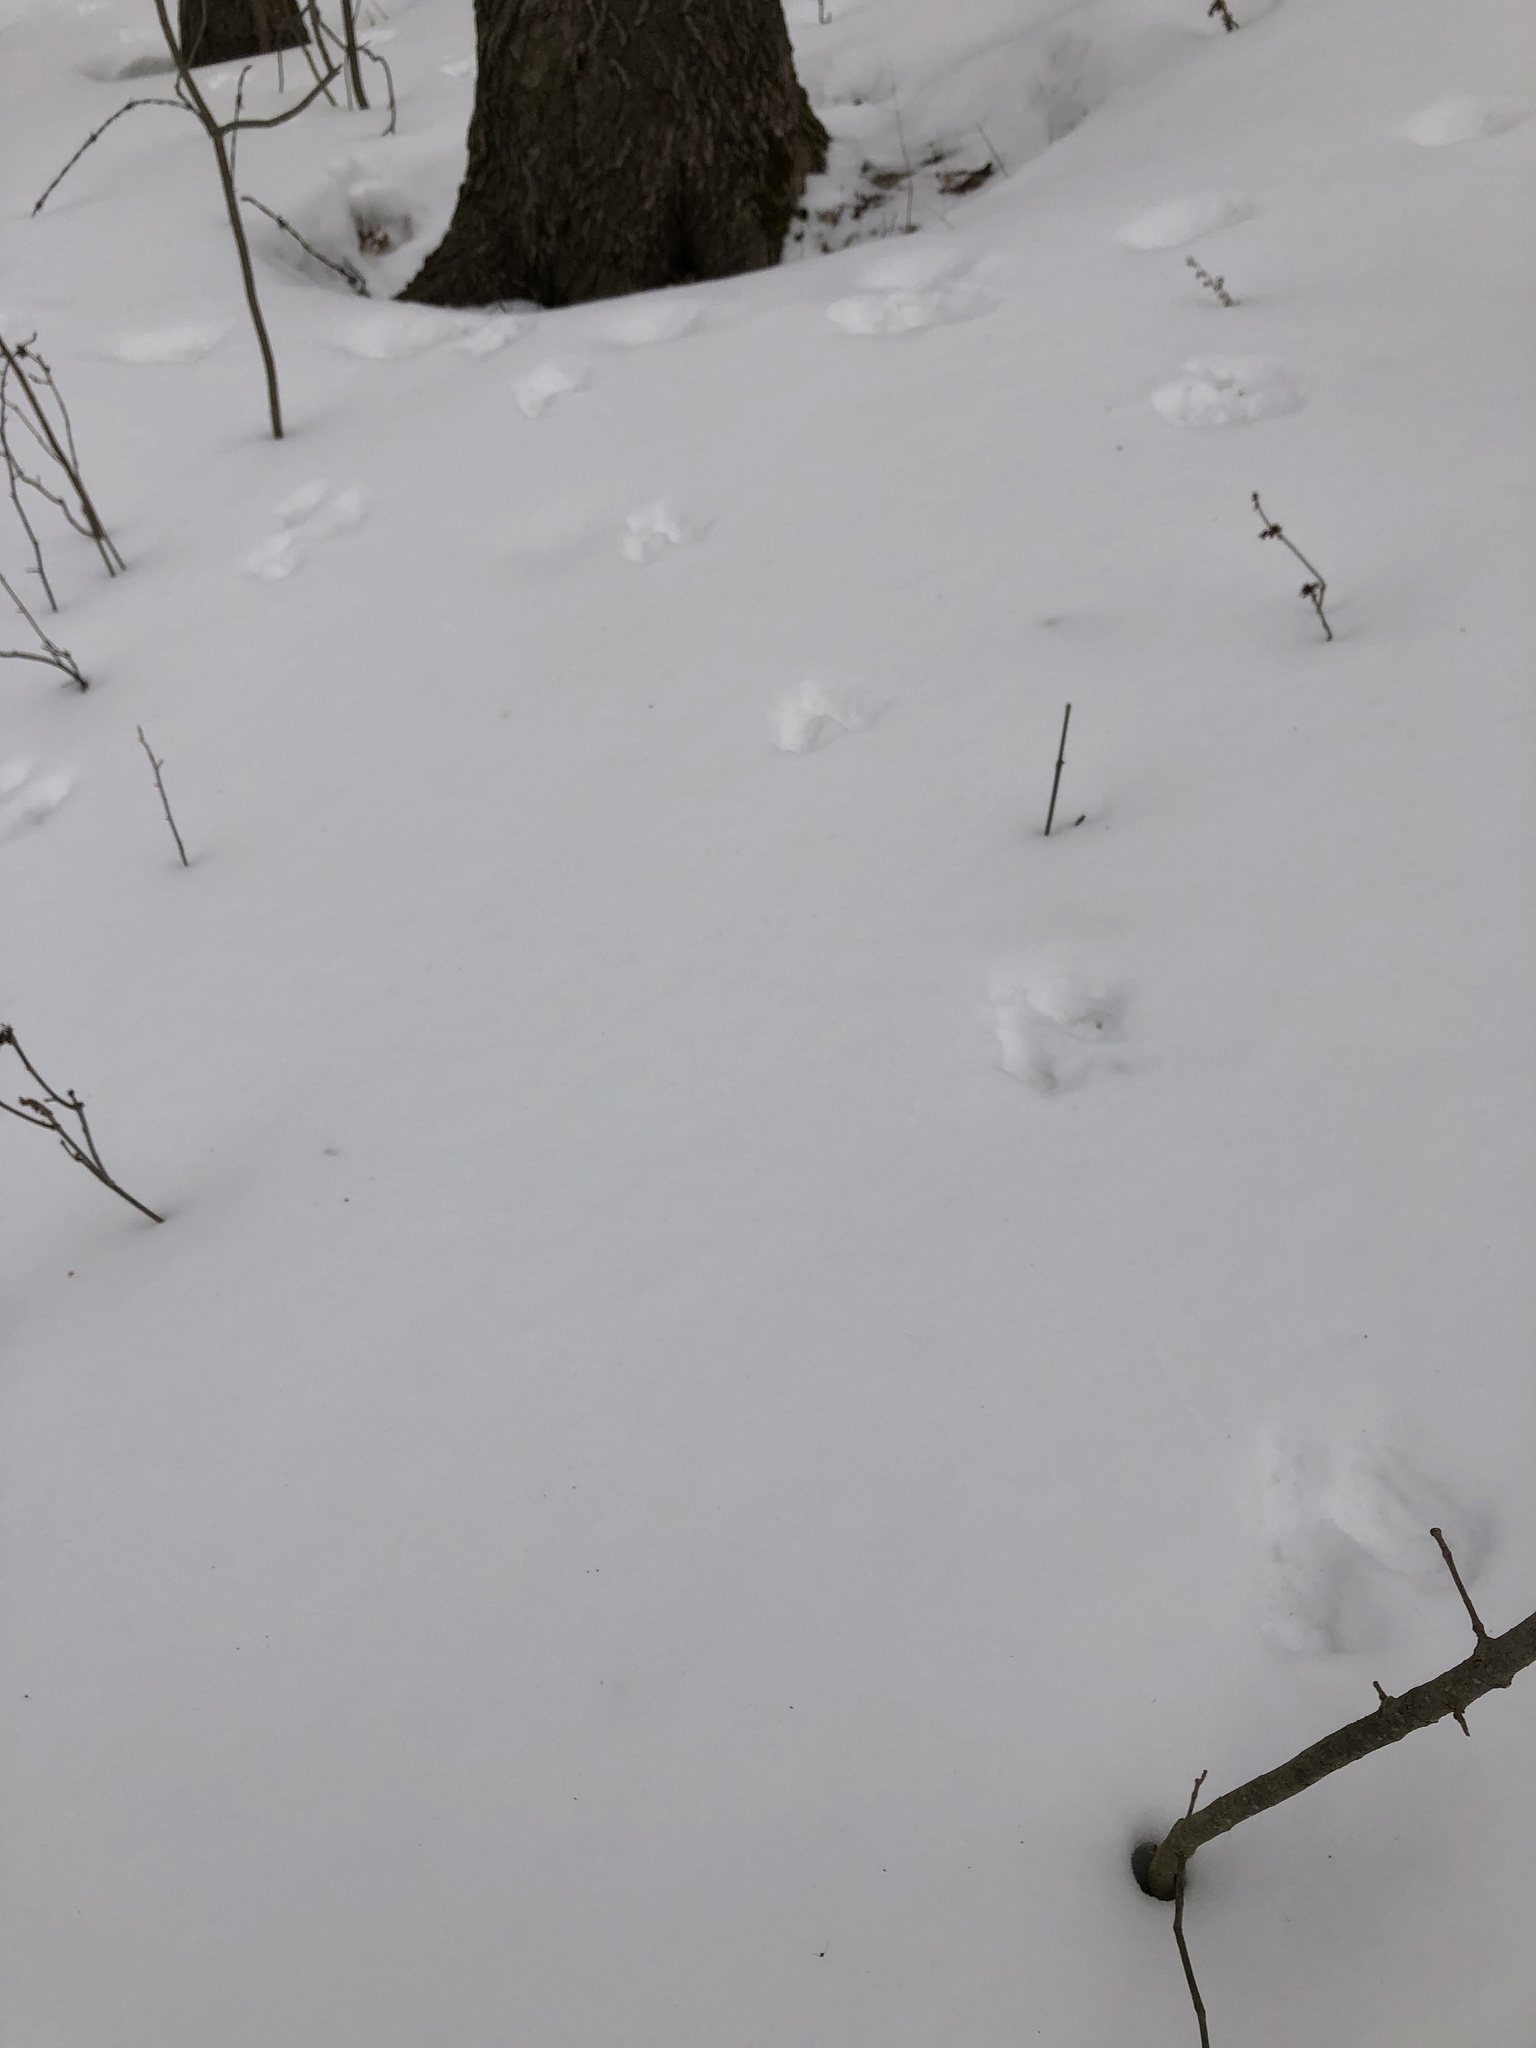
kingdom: Animalia
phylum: Chordata
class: Mammalia
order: Rodentia
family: Sciuridae
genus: Sciurus
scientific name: Sciurus carolinensis
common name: Eastern gray squirrel
